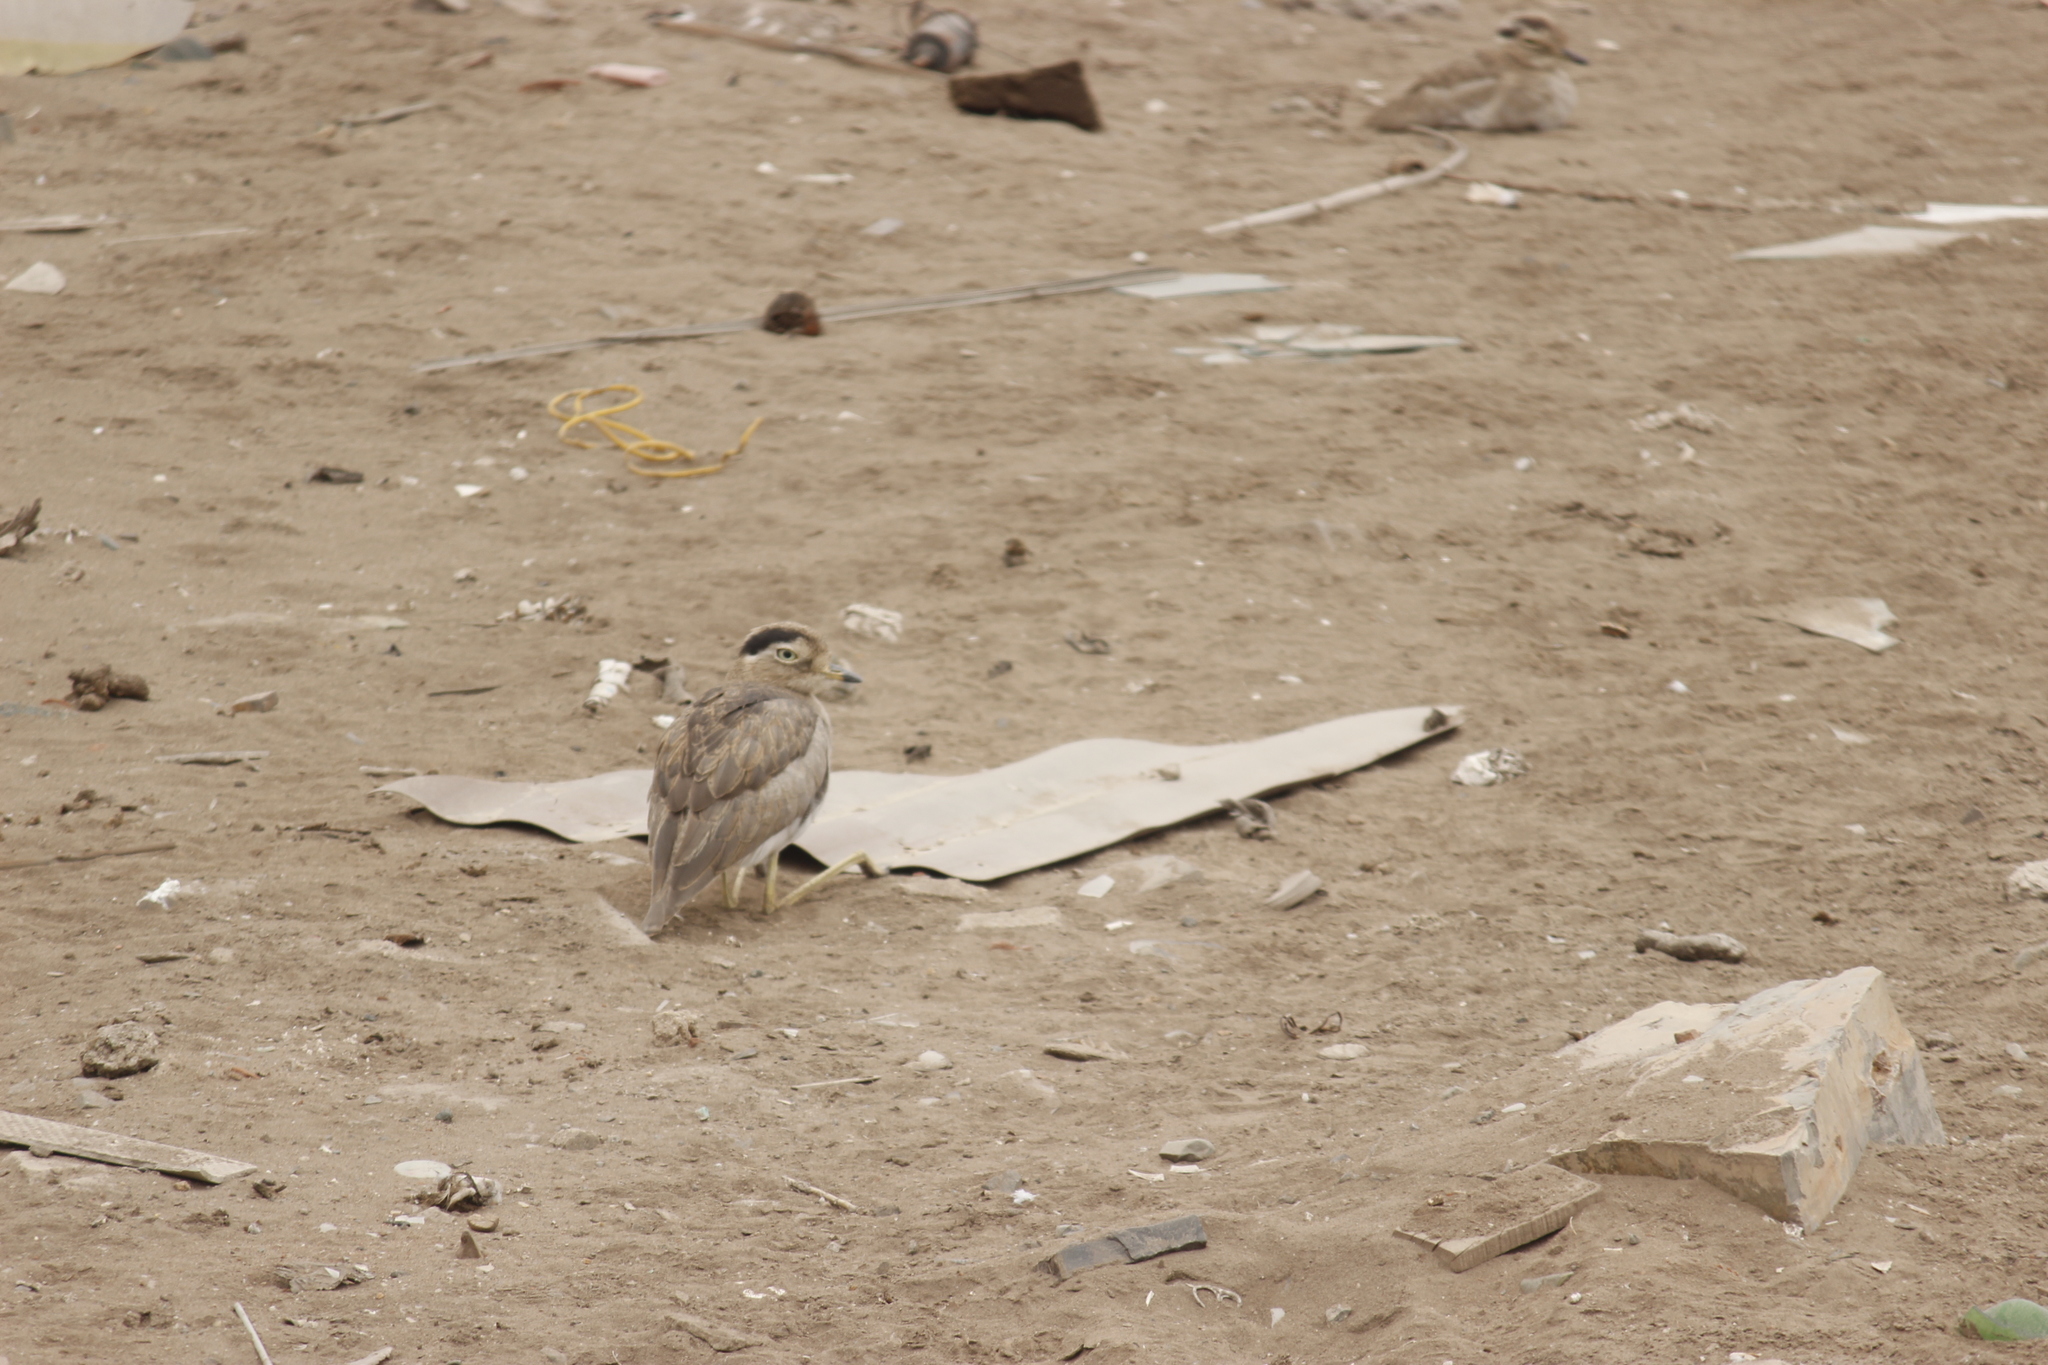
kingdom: Animalia
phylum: Chordata
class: Aves
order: Charadriiformes
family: Burhinidae
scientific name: Burhinidae
